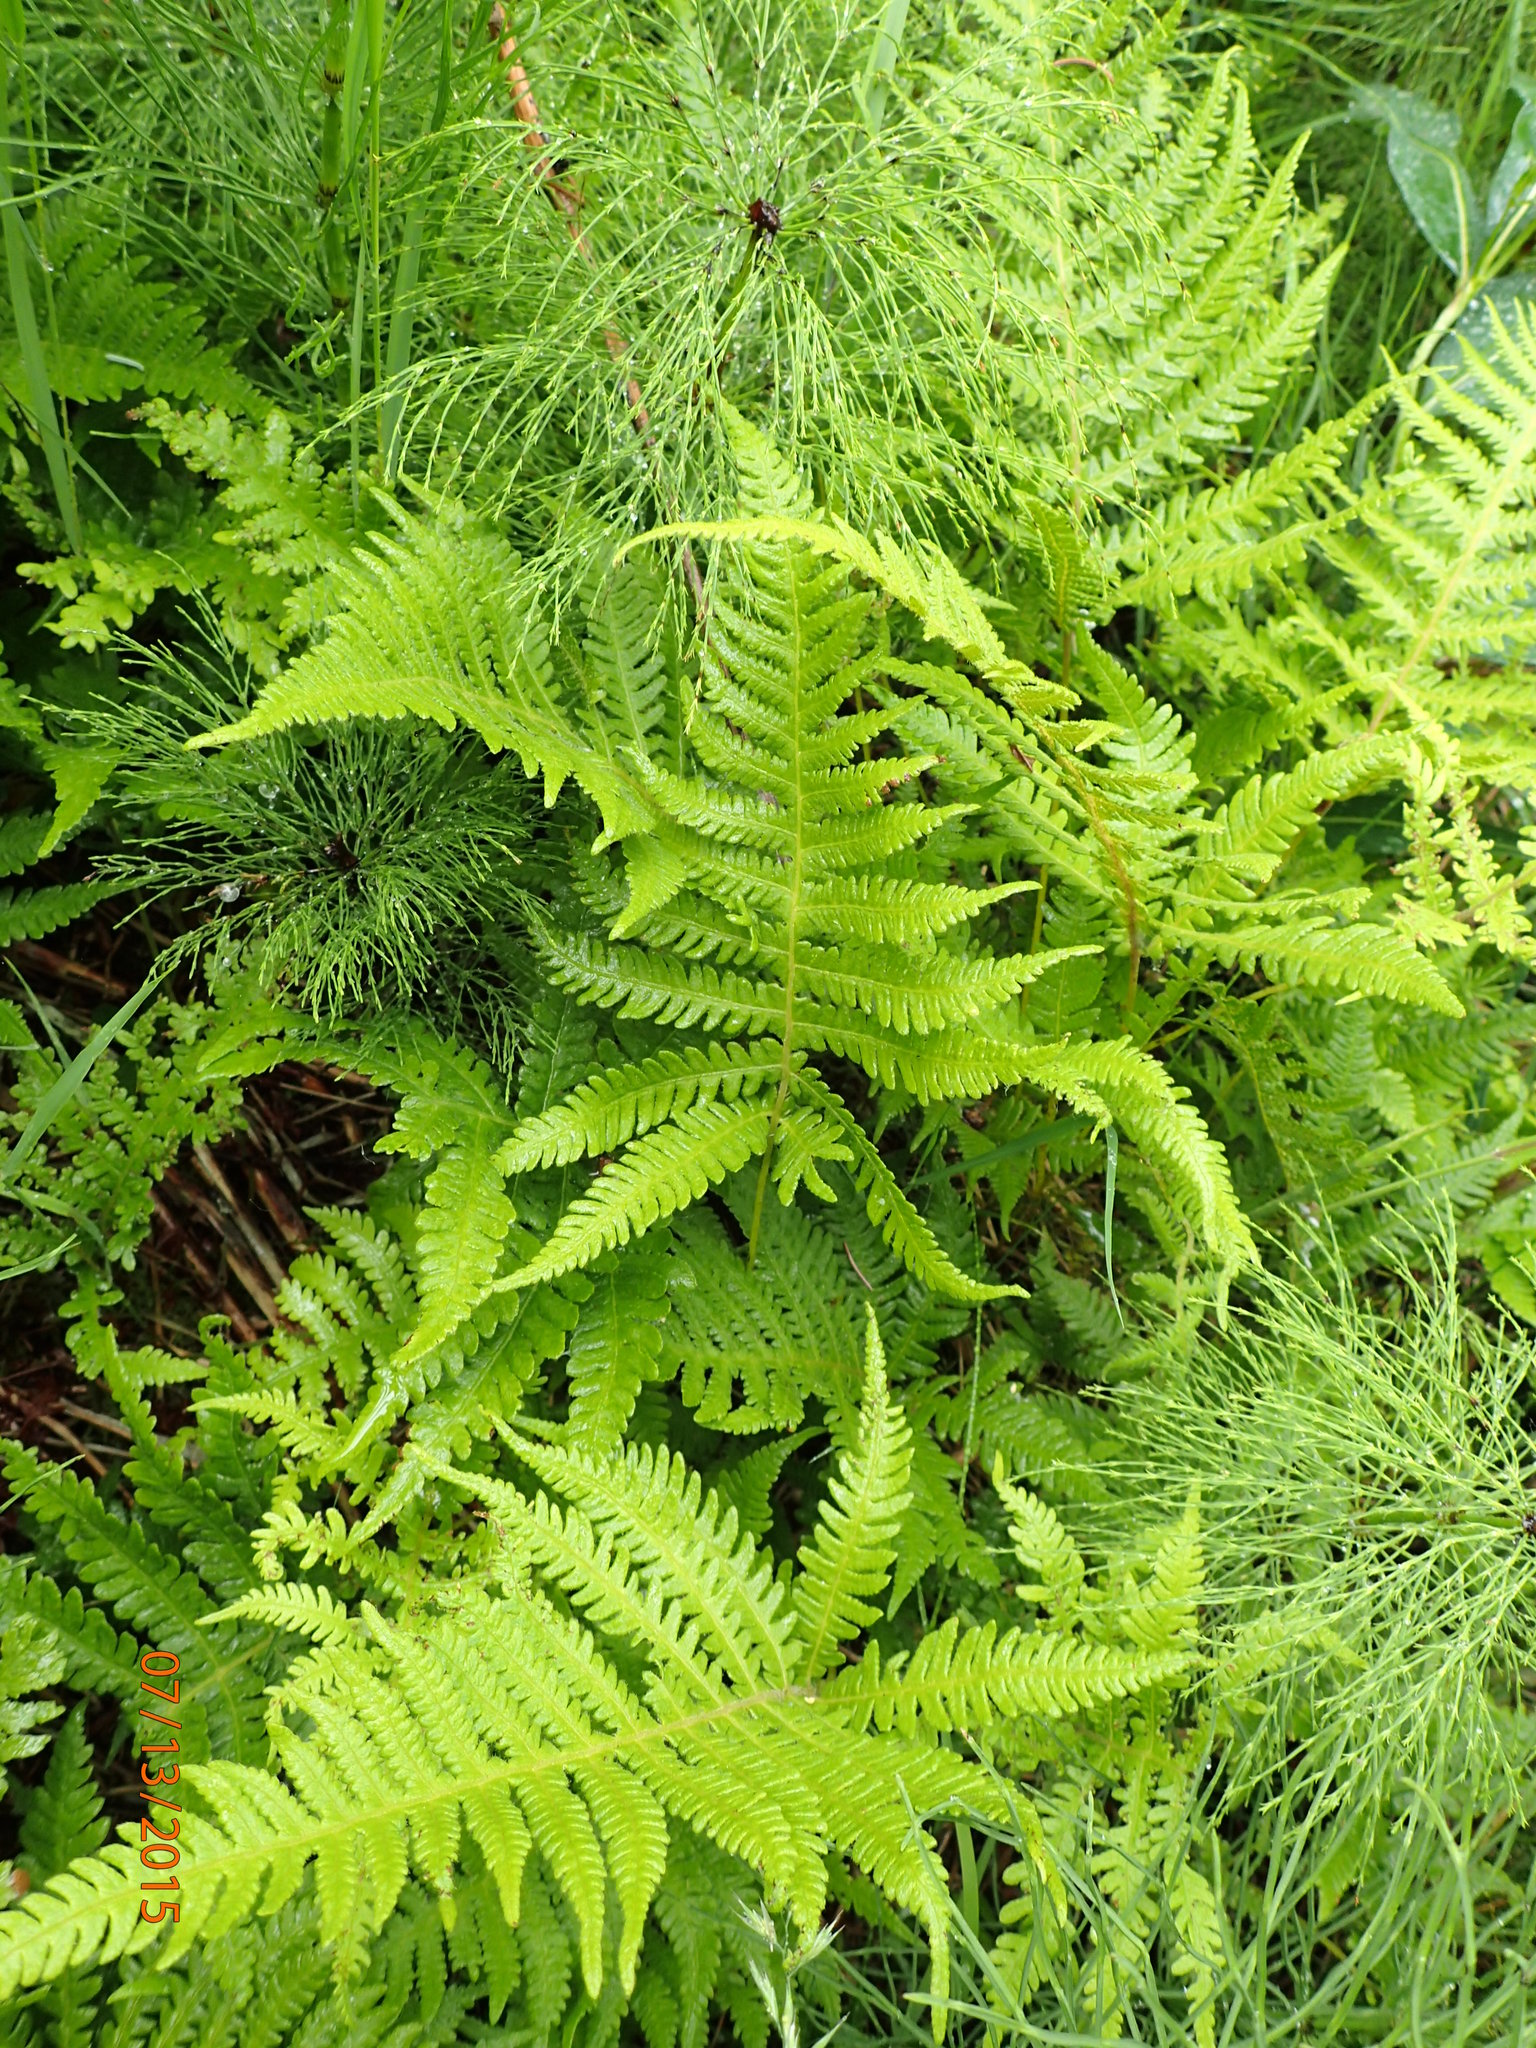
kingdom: Plantae
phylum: Tracheophyta
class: Polypodiopsida
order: Polypodiales
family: Thelypteridaceae
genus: Phegopteris
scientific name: Phegopteris connectilis
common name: Beech fern
